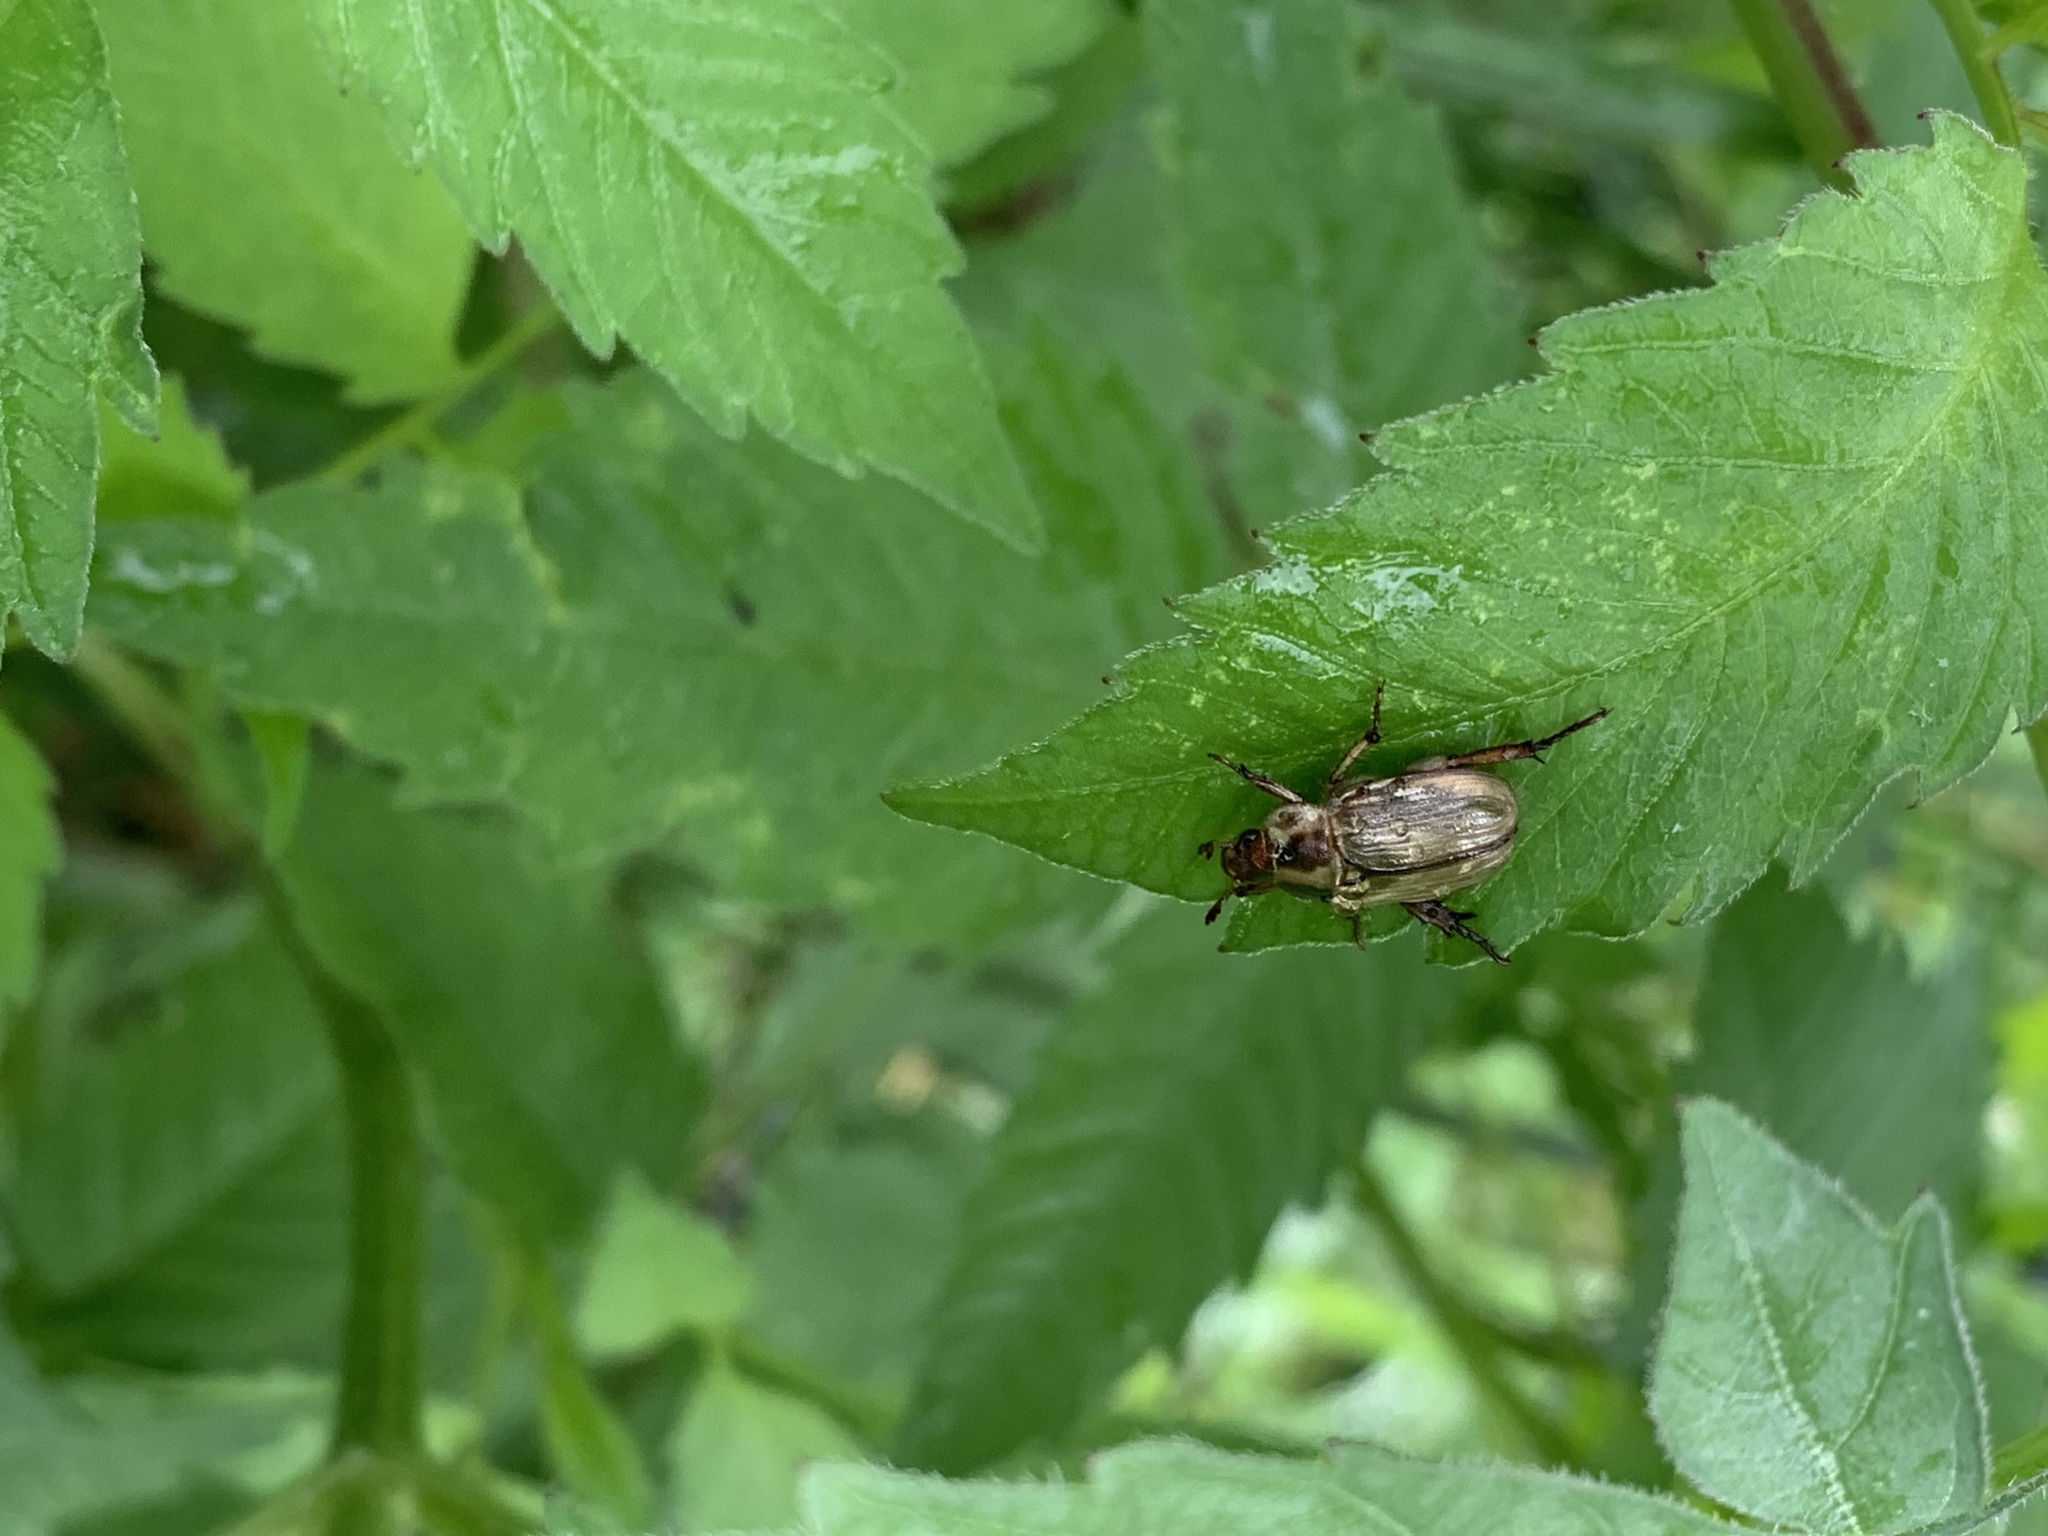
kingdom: Animalia
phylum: Arthropoda
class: Insecta
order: Coleoptera
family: Scarabaeidae
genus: Exomala
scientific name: Exomala orientalis
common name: Oriental beetle
